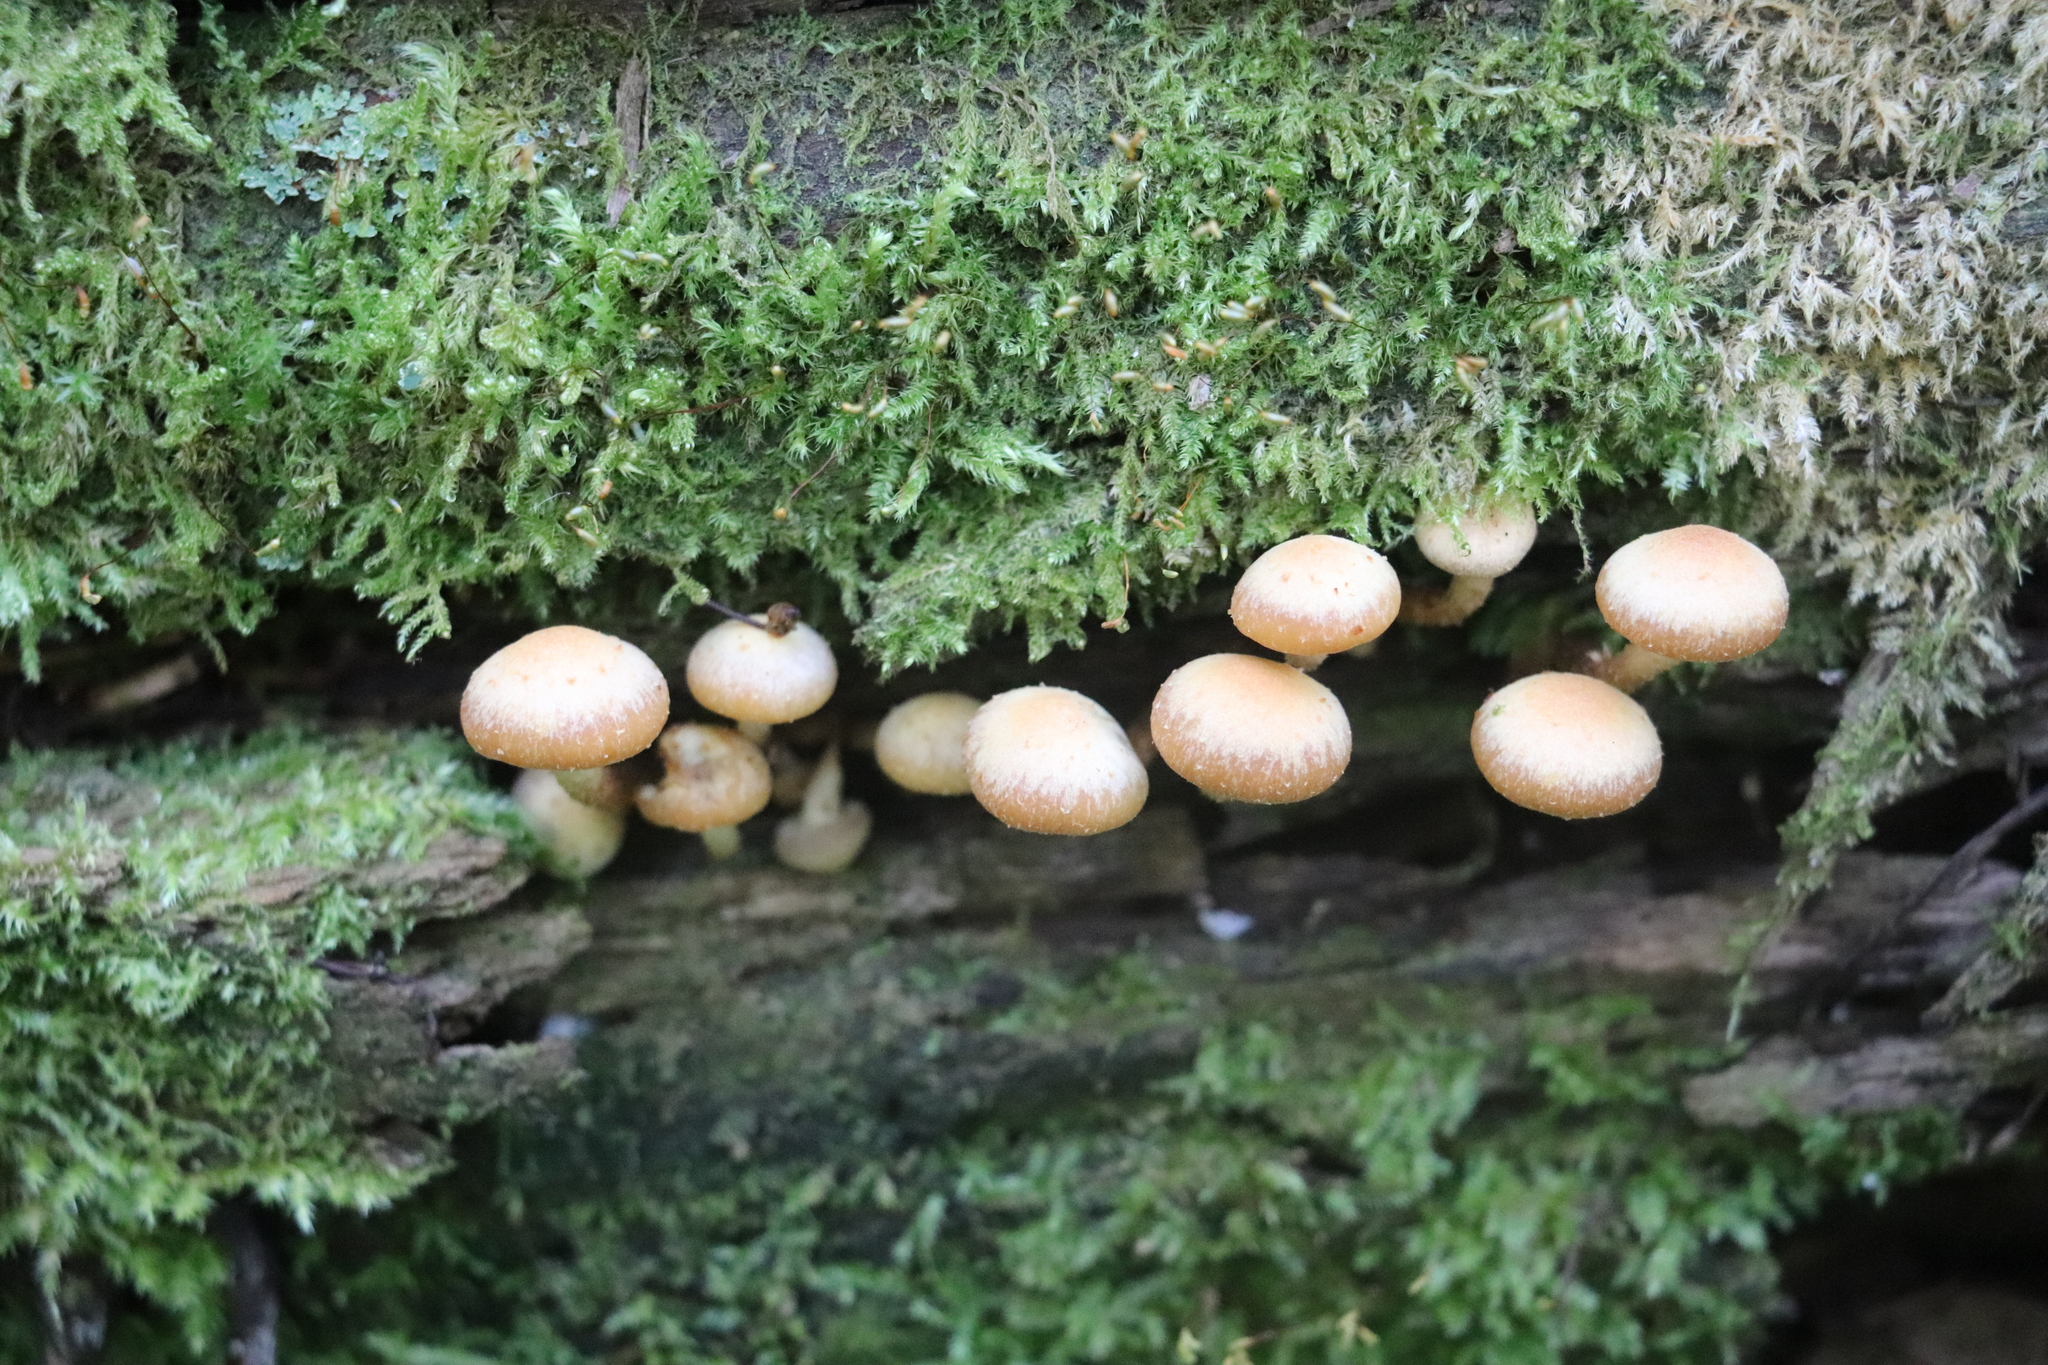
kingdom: Fungi
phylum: Basidiomycota
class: Agaricomycetes
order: Agaricales
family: Strophariaceae
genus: Kuehneromyces
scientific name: Kuehneromyces mutabilis
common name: Sheathed woodtuft
